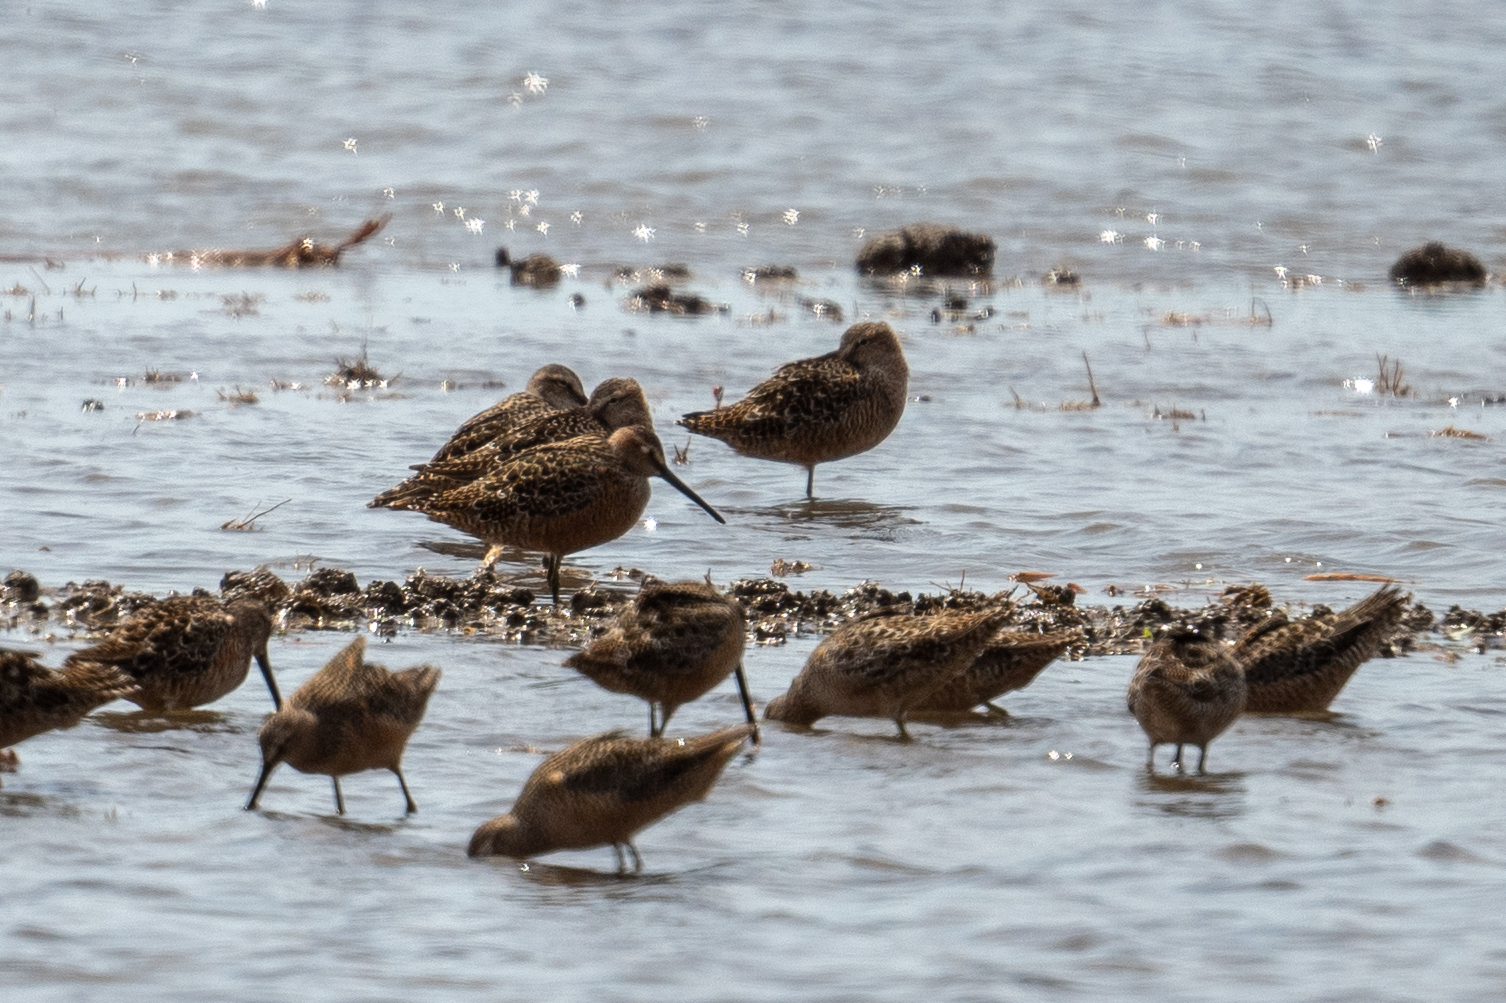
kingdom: Animalia
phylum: Chordata
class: Aves
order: Charadriiformes
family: Scolopacidae
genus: Limnodromus
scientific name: Limnodromus scolopaceus
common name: Long-billed dowitcher
